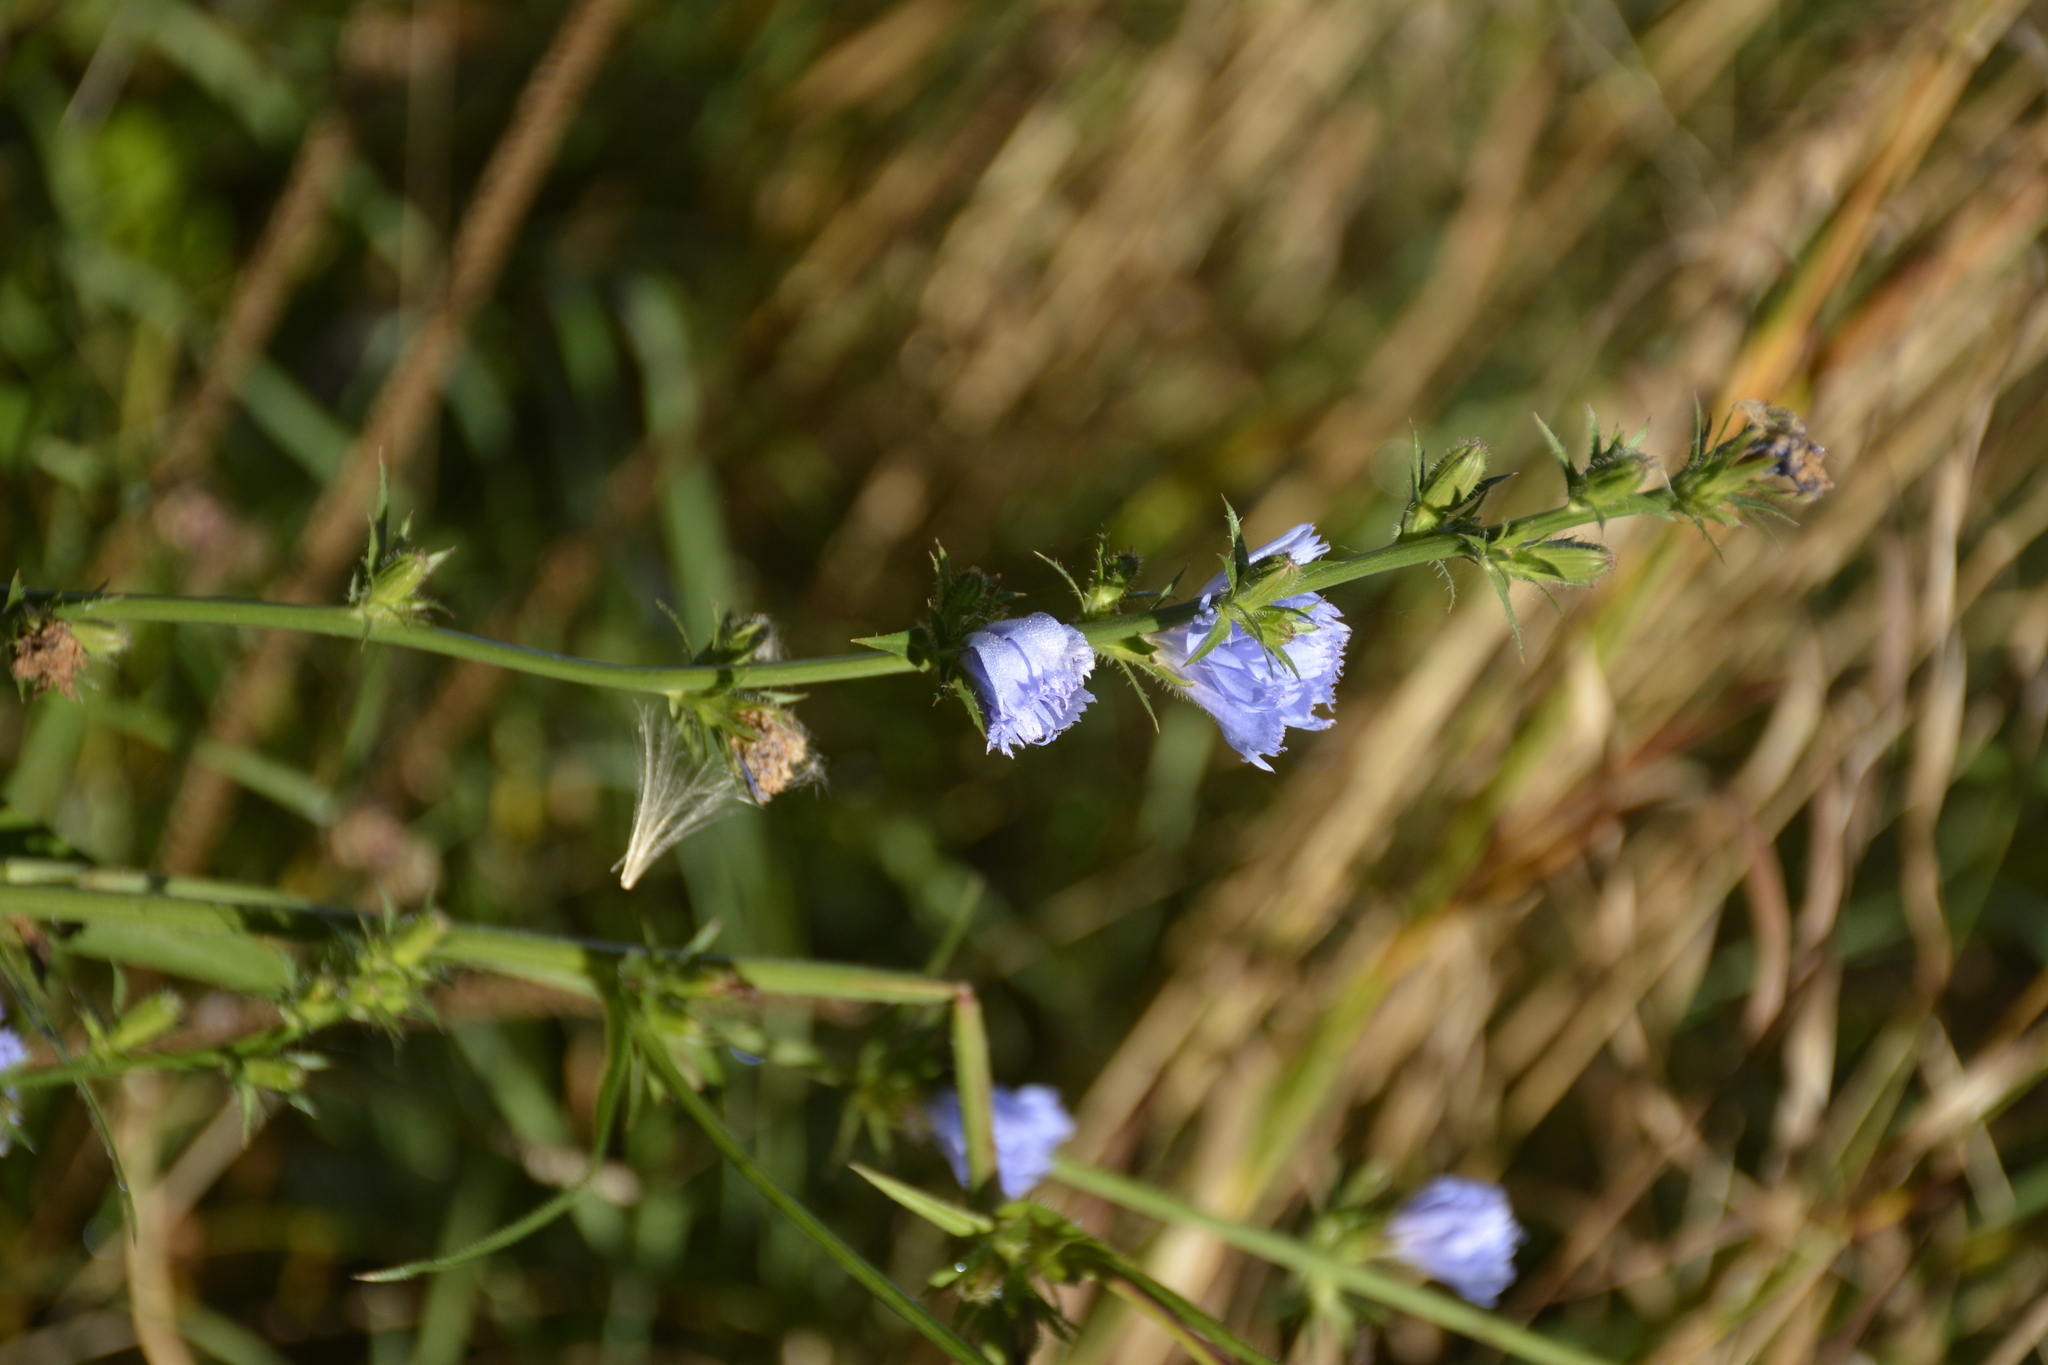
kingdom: Plantae
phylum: Tracheophyta
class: Magnoliopsida
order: Asterales
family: Asteraceae
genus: Cichorium
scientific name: Cichorium intybus
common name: Chicory
